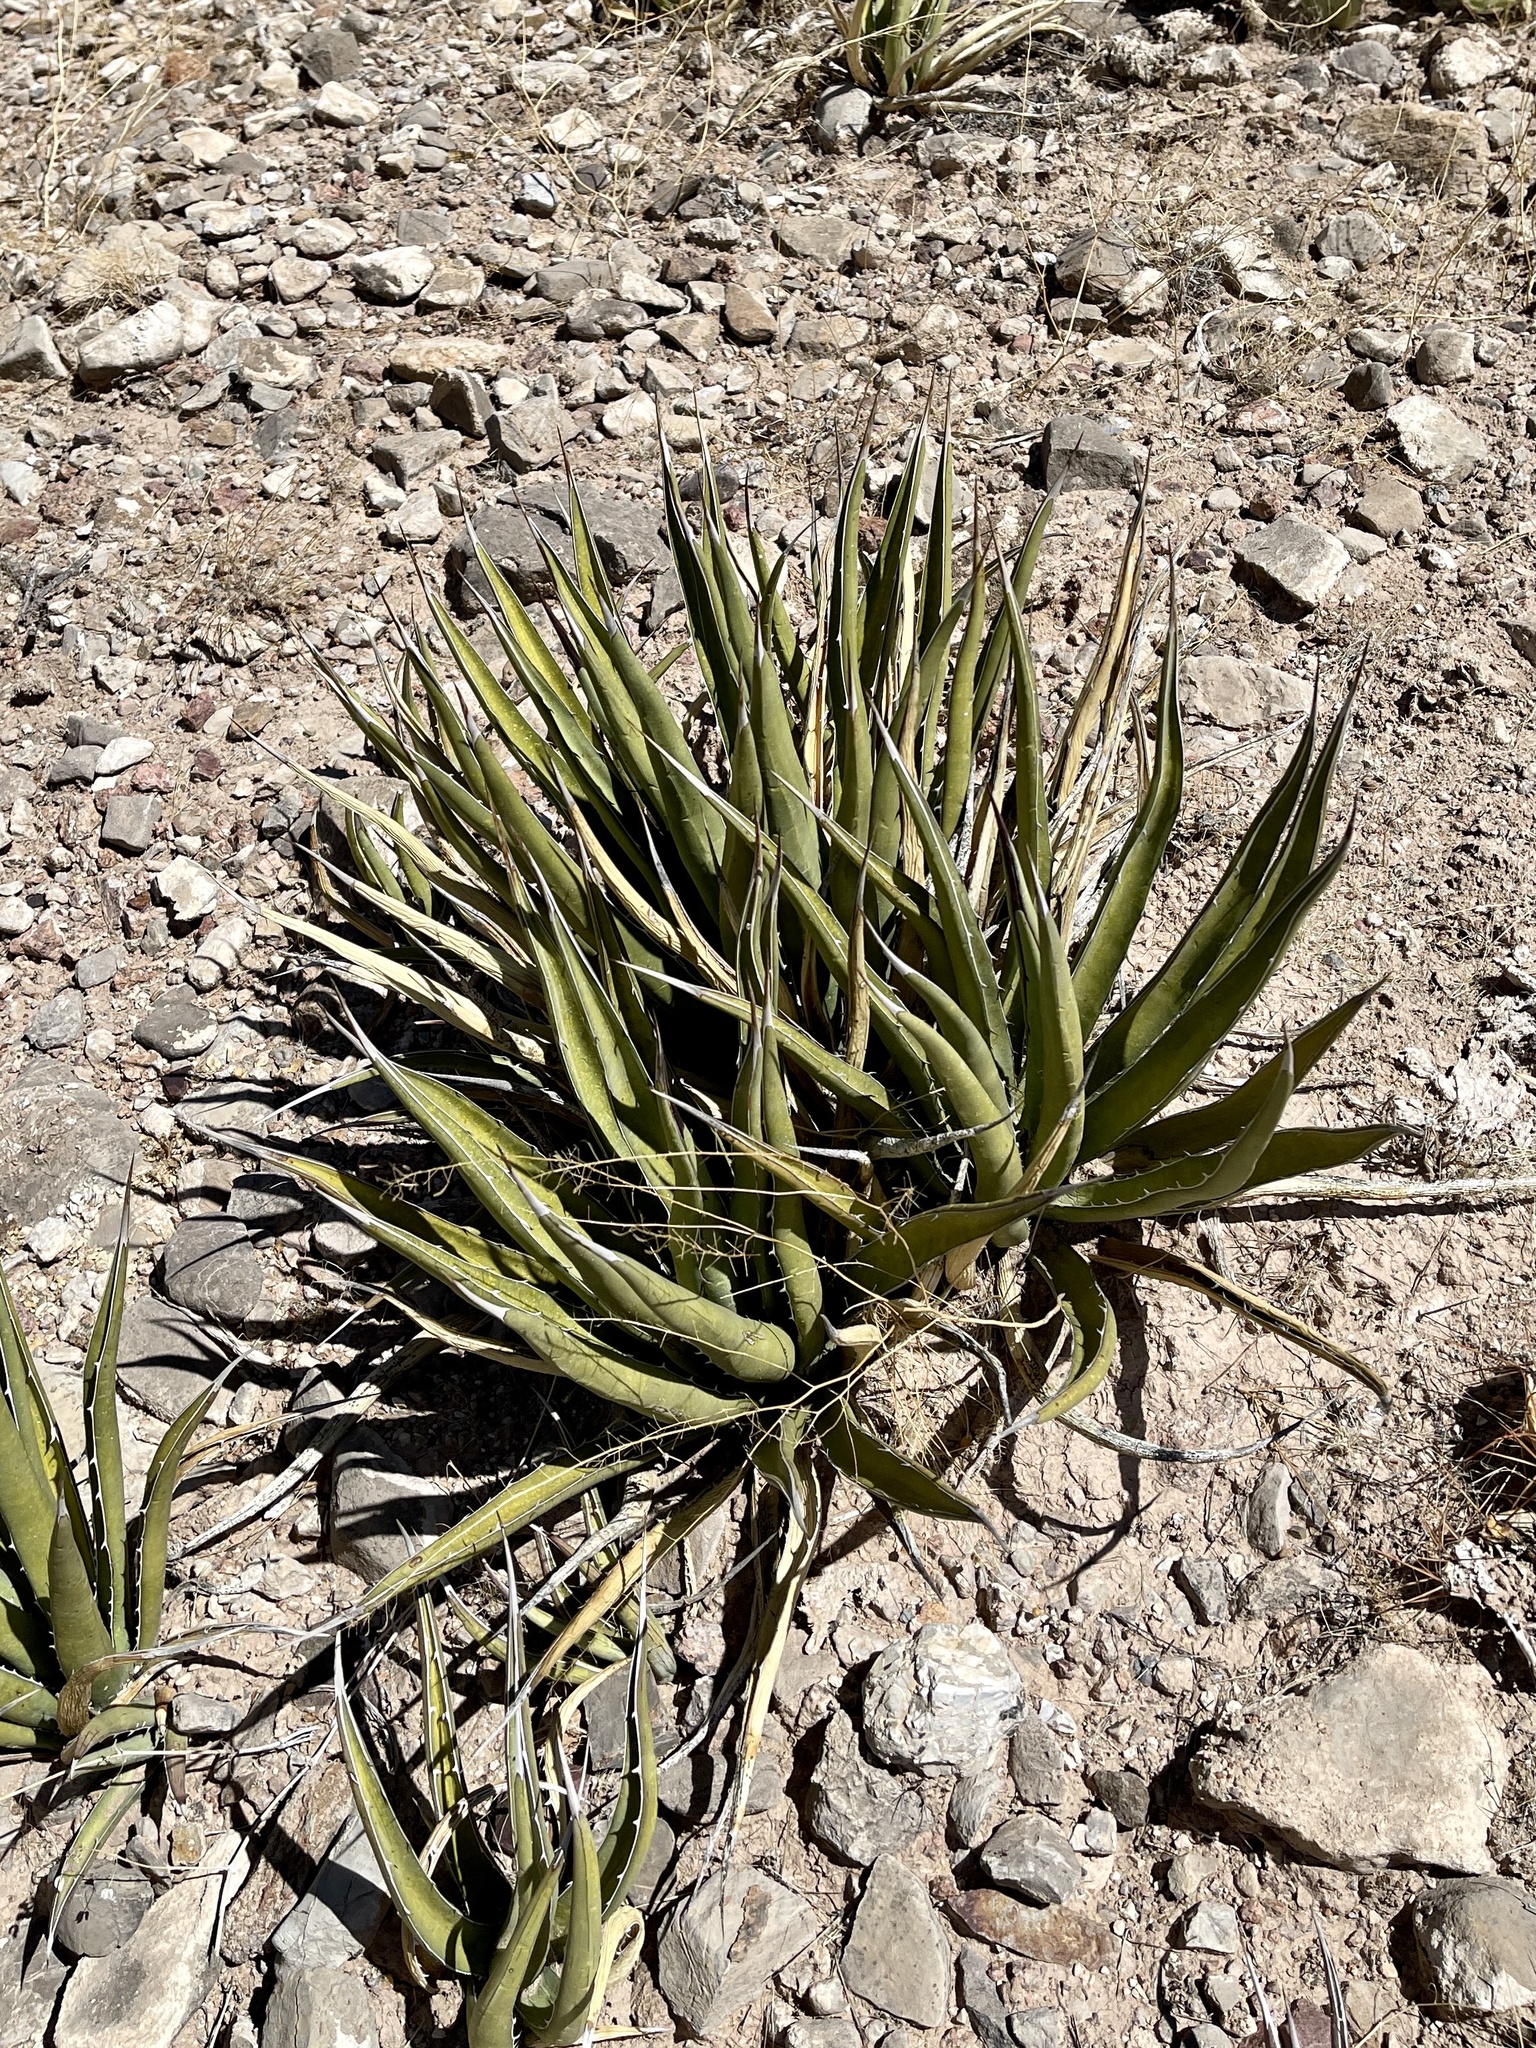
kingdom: Plantae
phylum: Tracheophyta
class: Liliopsida
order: Asparagales
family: Asparagaceae
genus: Agave
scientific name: Agave lechuguilla
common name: Lecheguilla agave
